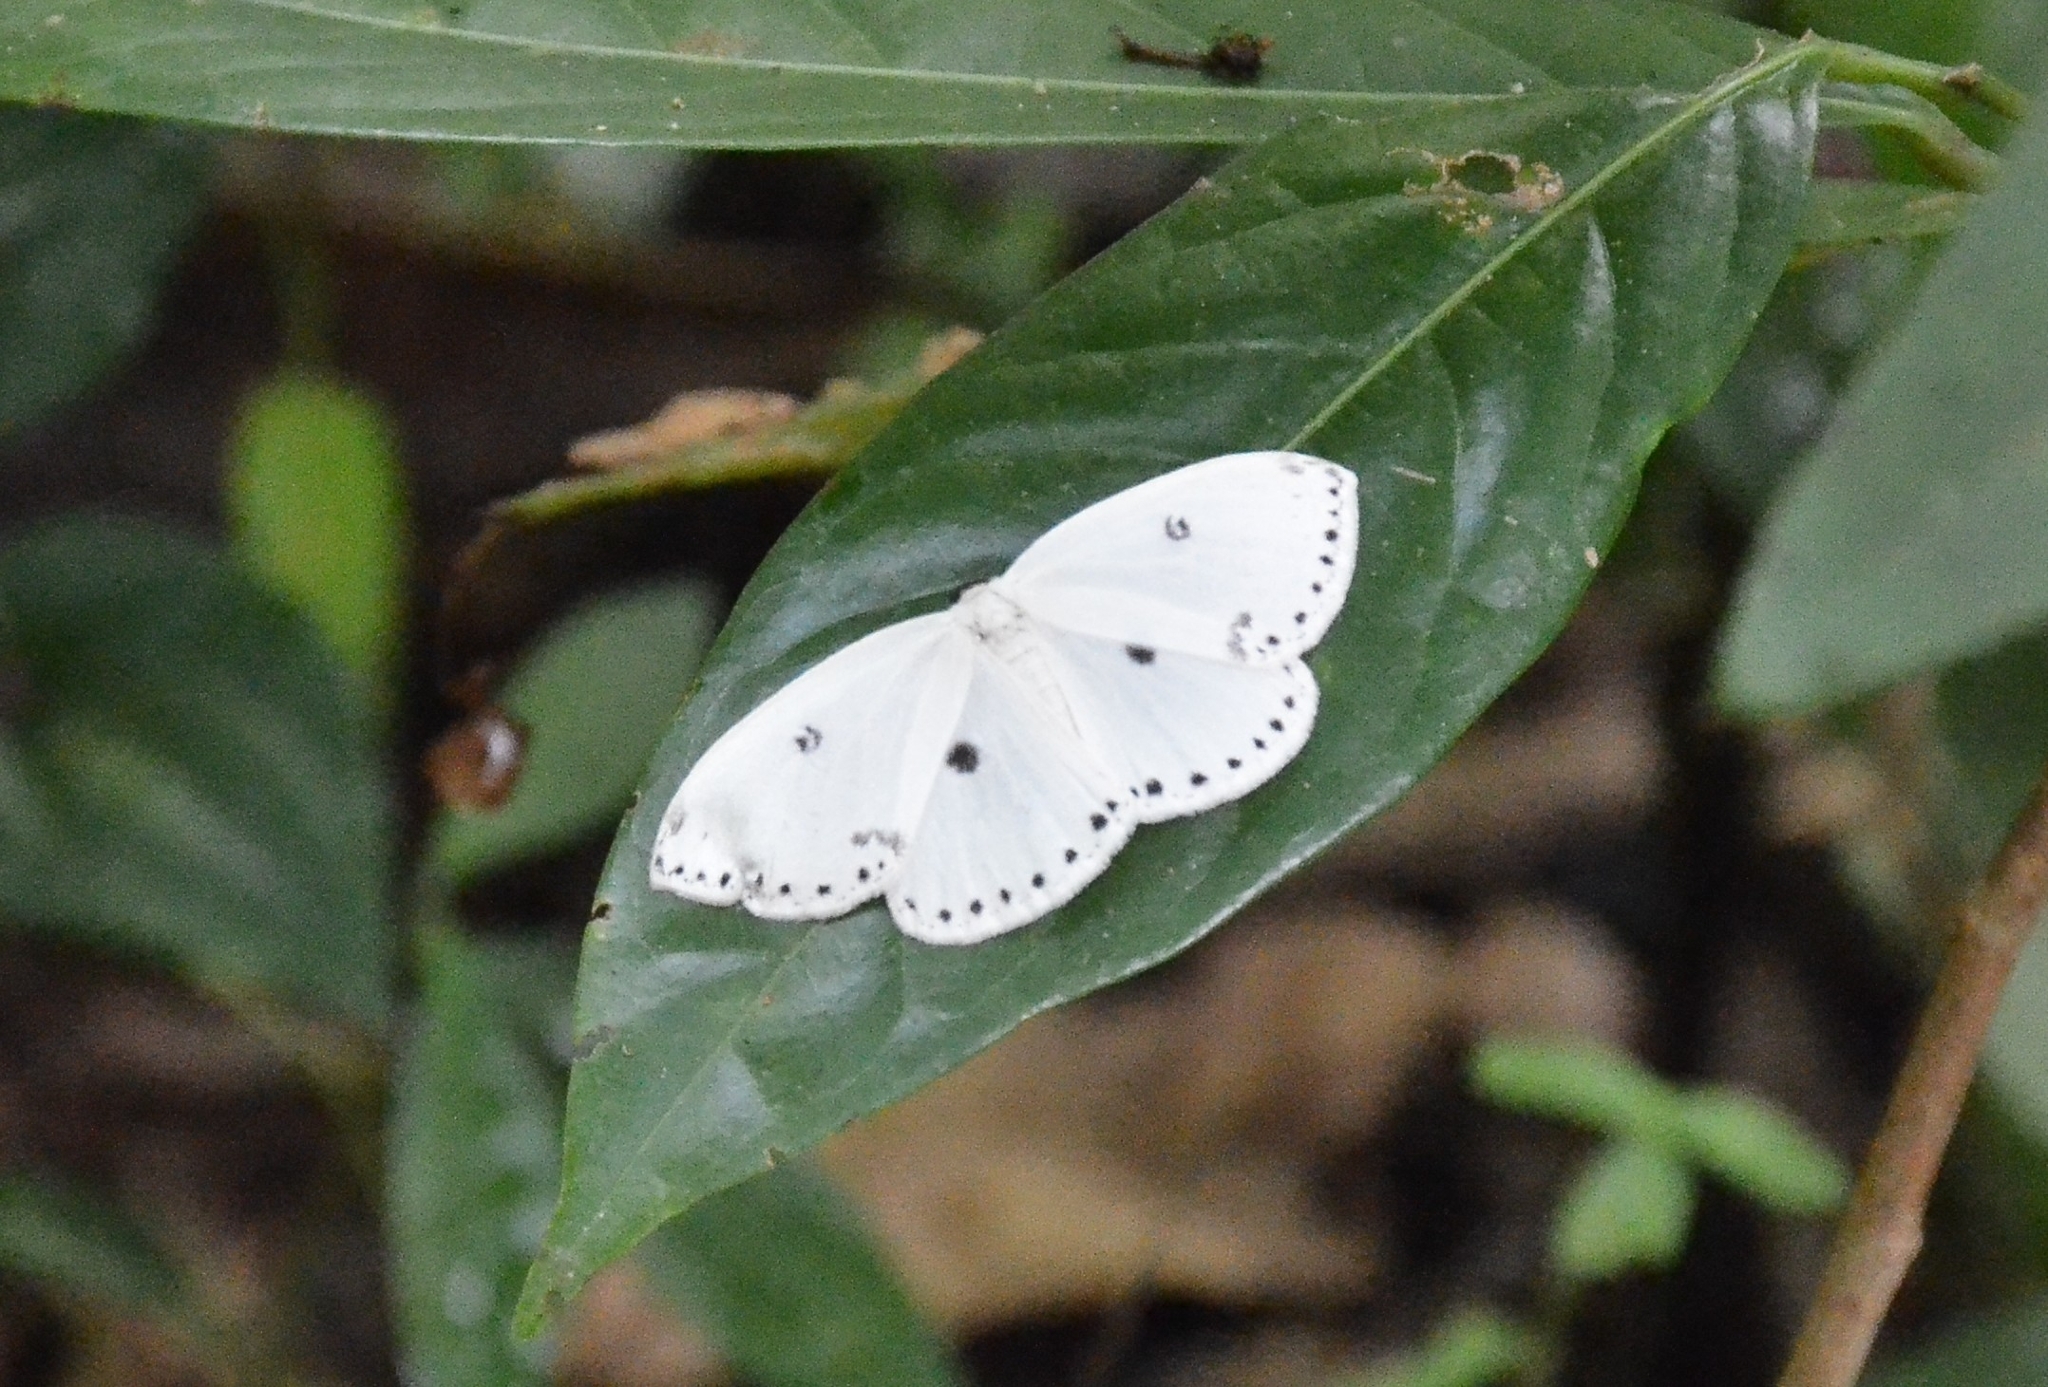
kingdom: Animalia
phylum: Arthropoda
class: Insecta
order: Lepidoptera
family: Drepanidae
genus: Cyclidia
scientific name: Cyclidia dictyaria
